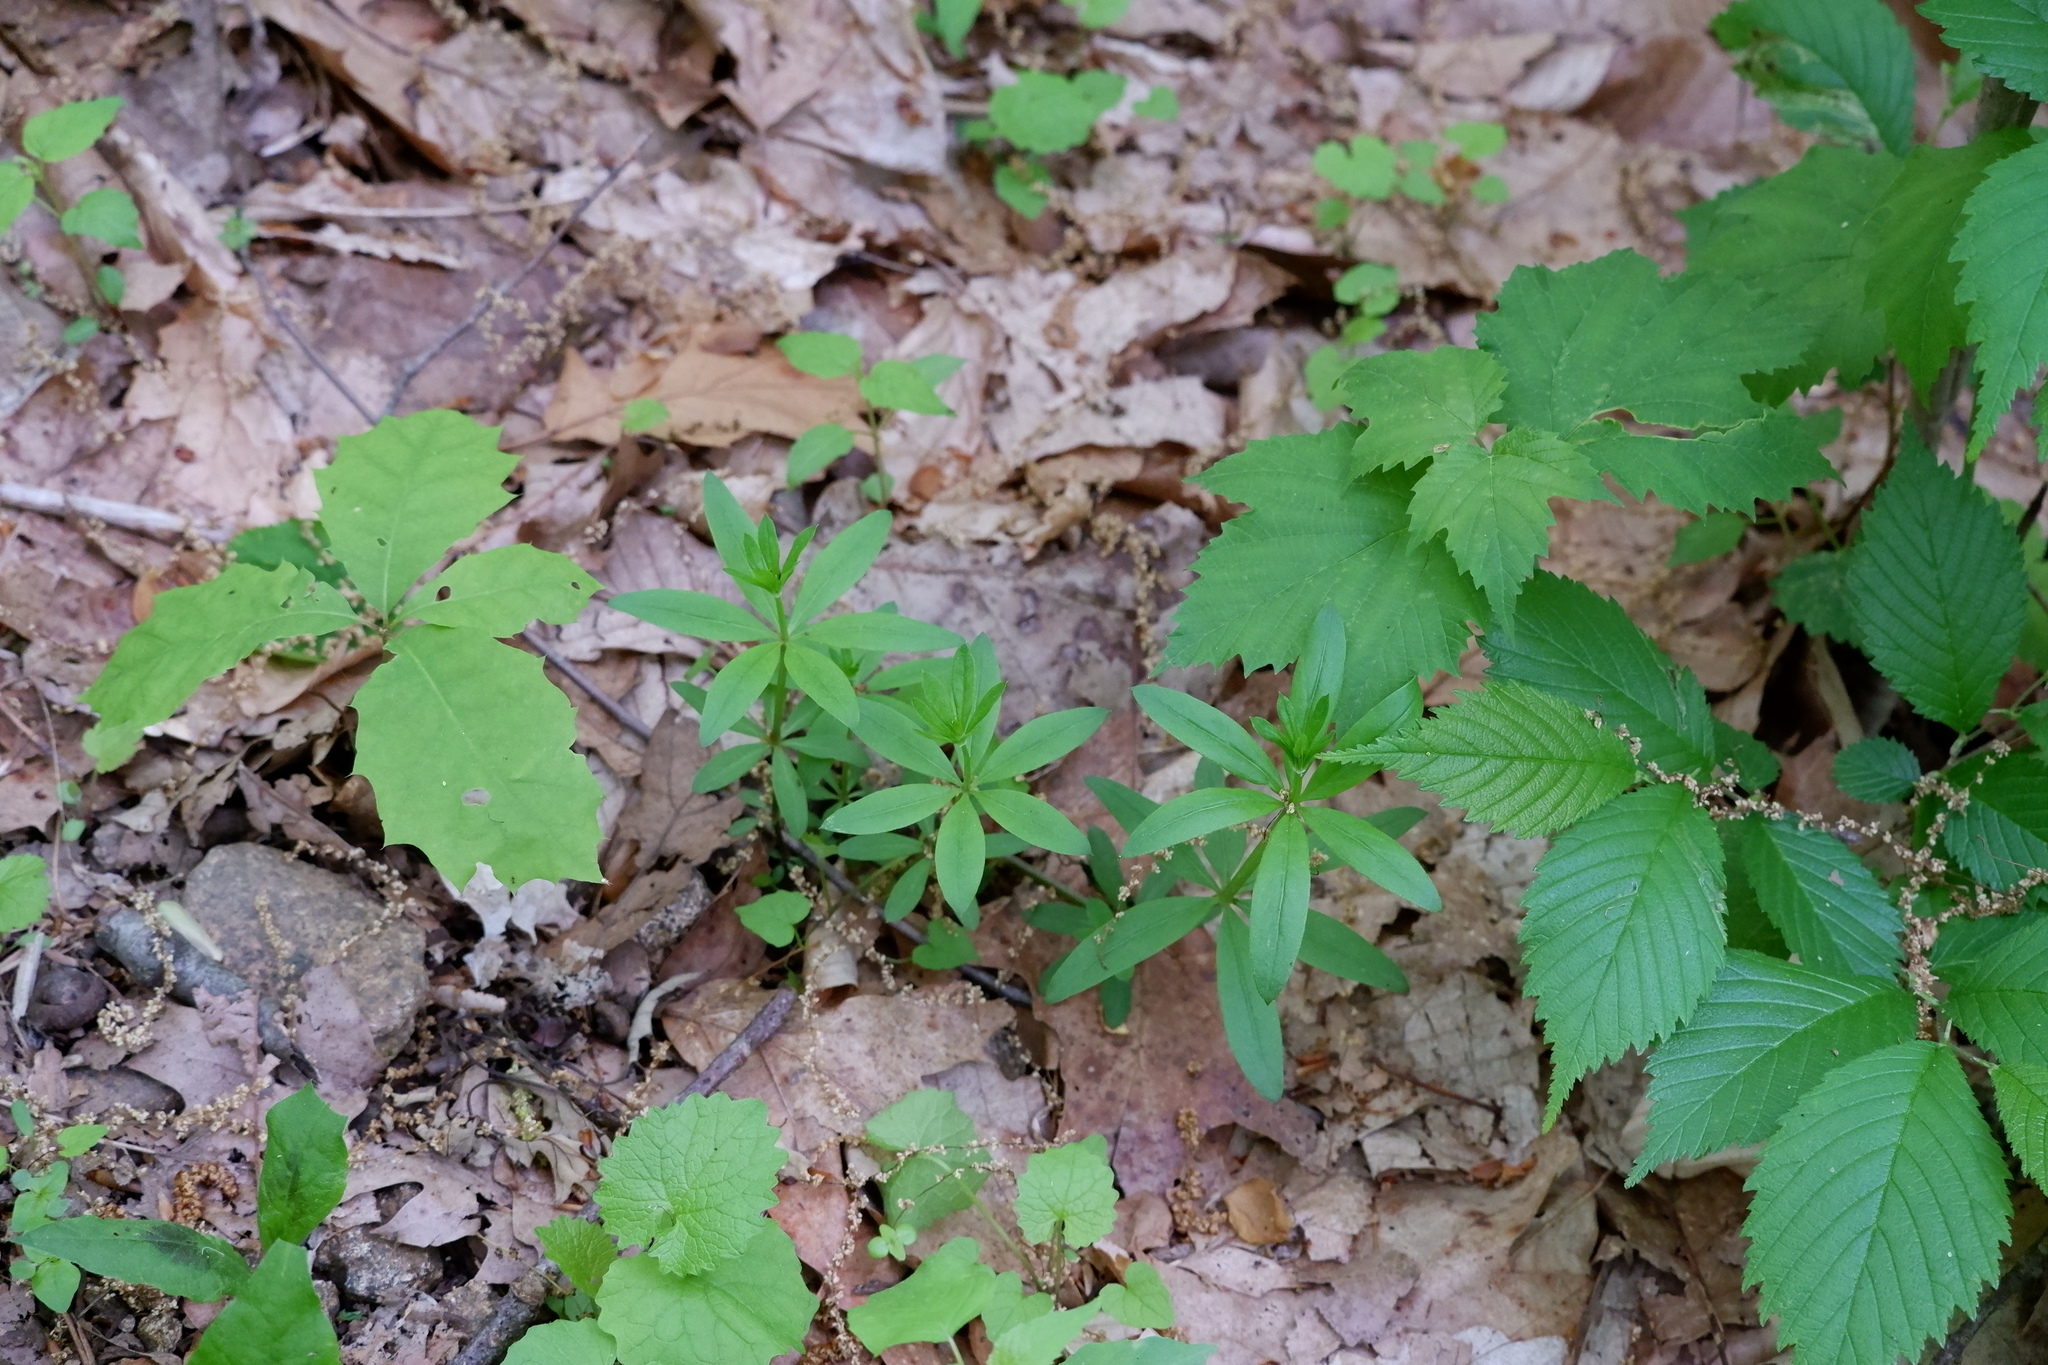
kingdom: Plantae
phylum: Tracheophyta
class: Magnoliopsida
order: Gentianales
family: Rubiaceae
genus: Galium
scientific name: Galium triflorum
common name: Fragrant bedstraw
